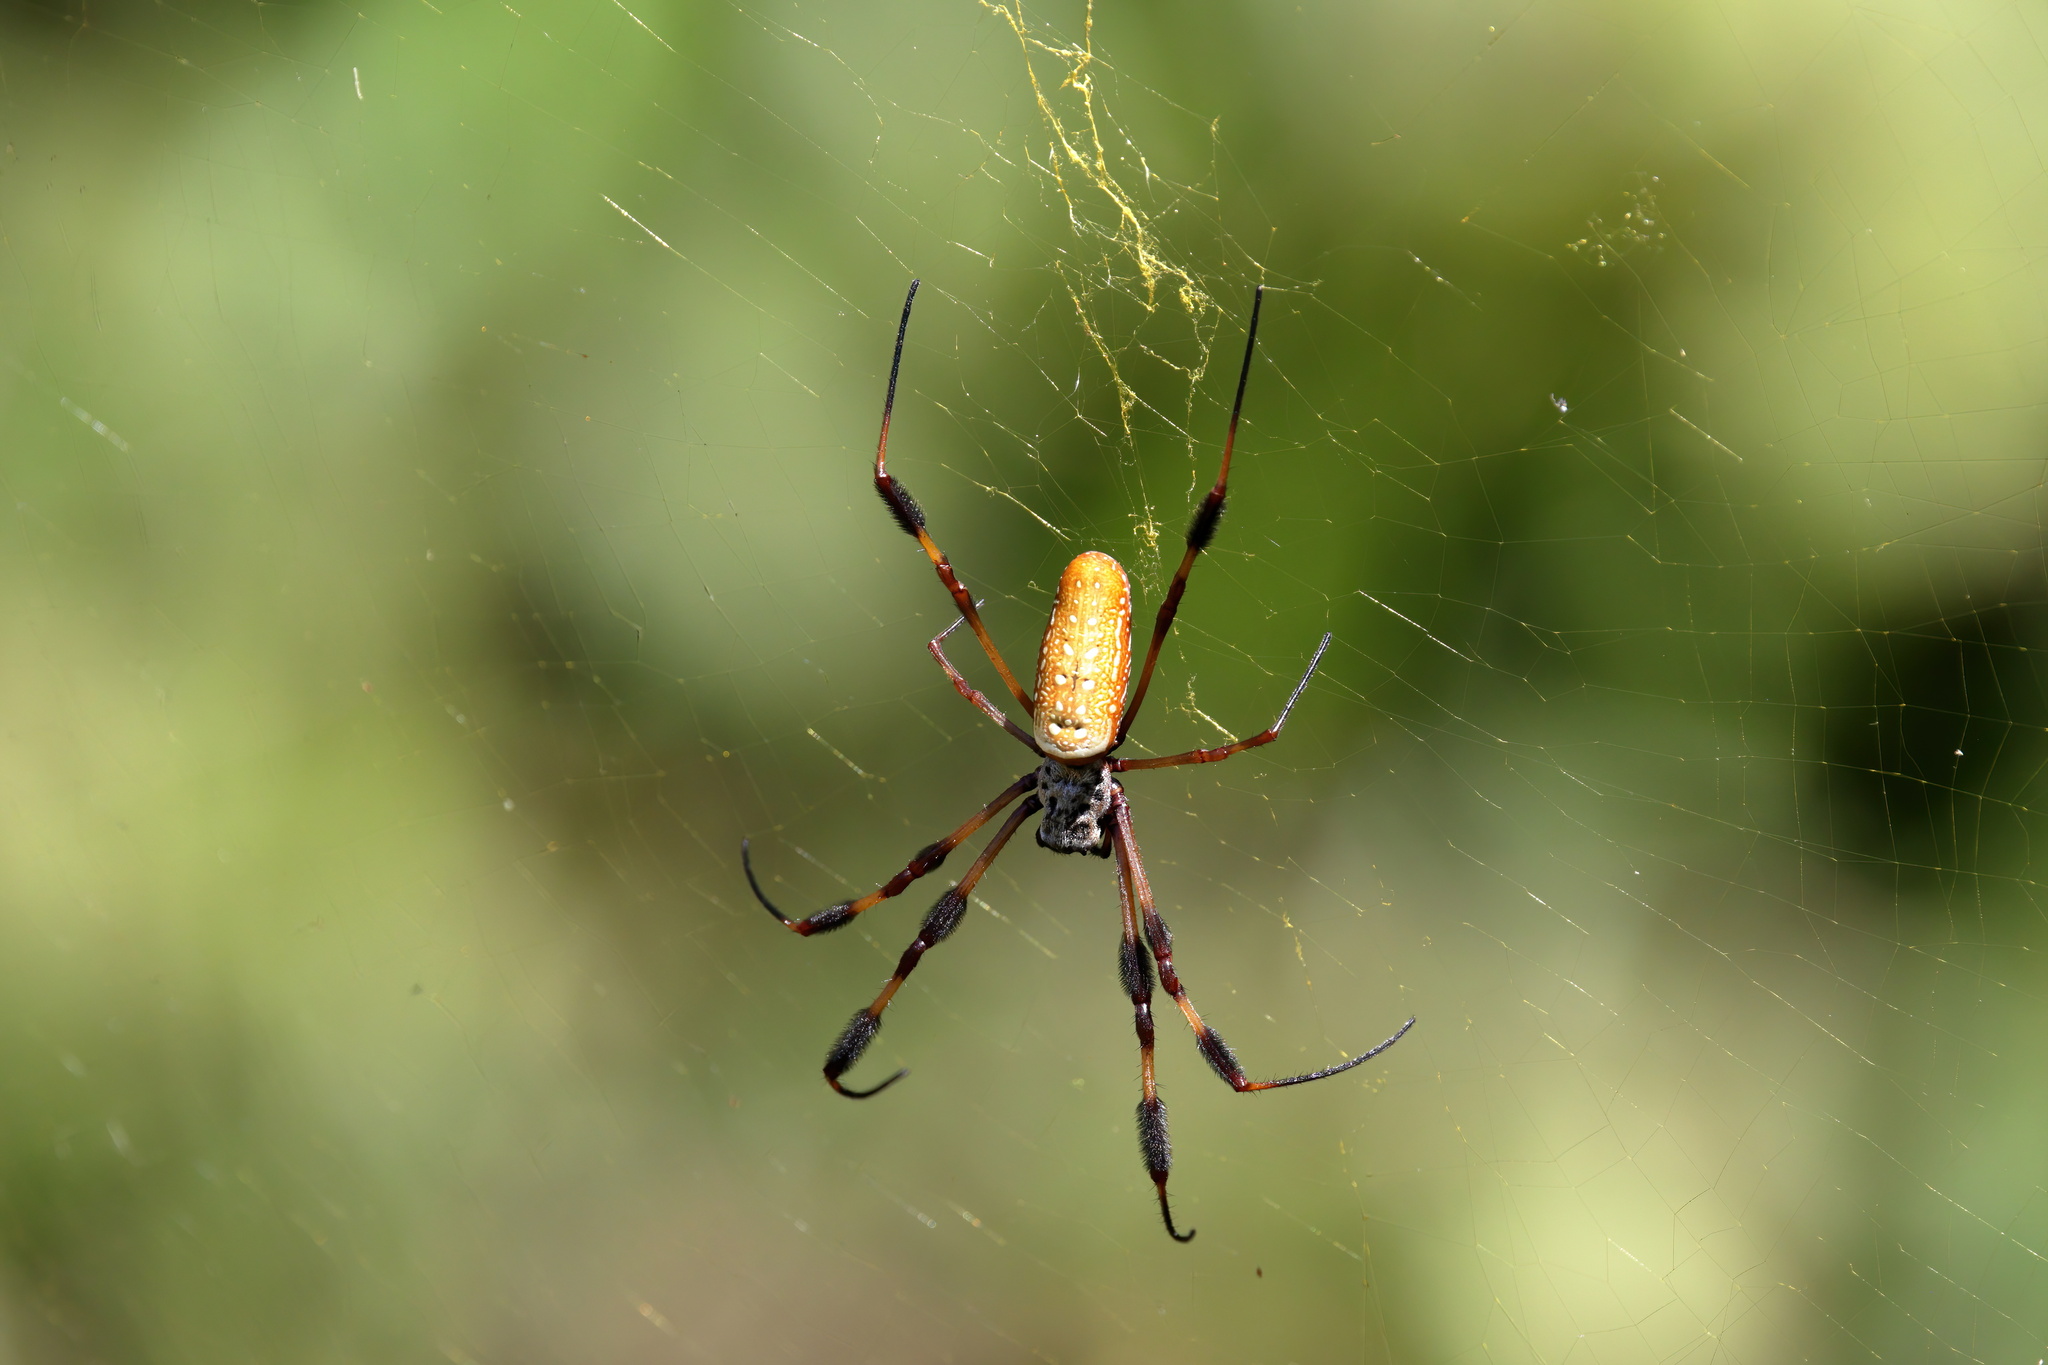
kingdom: Animalia
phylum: Arthropoda
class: Arachnida
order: Araneae
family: Araneidae
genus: Trichonephila
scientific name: Trichonephila clavipes
